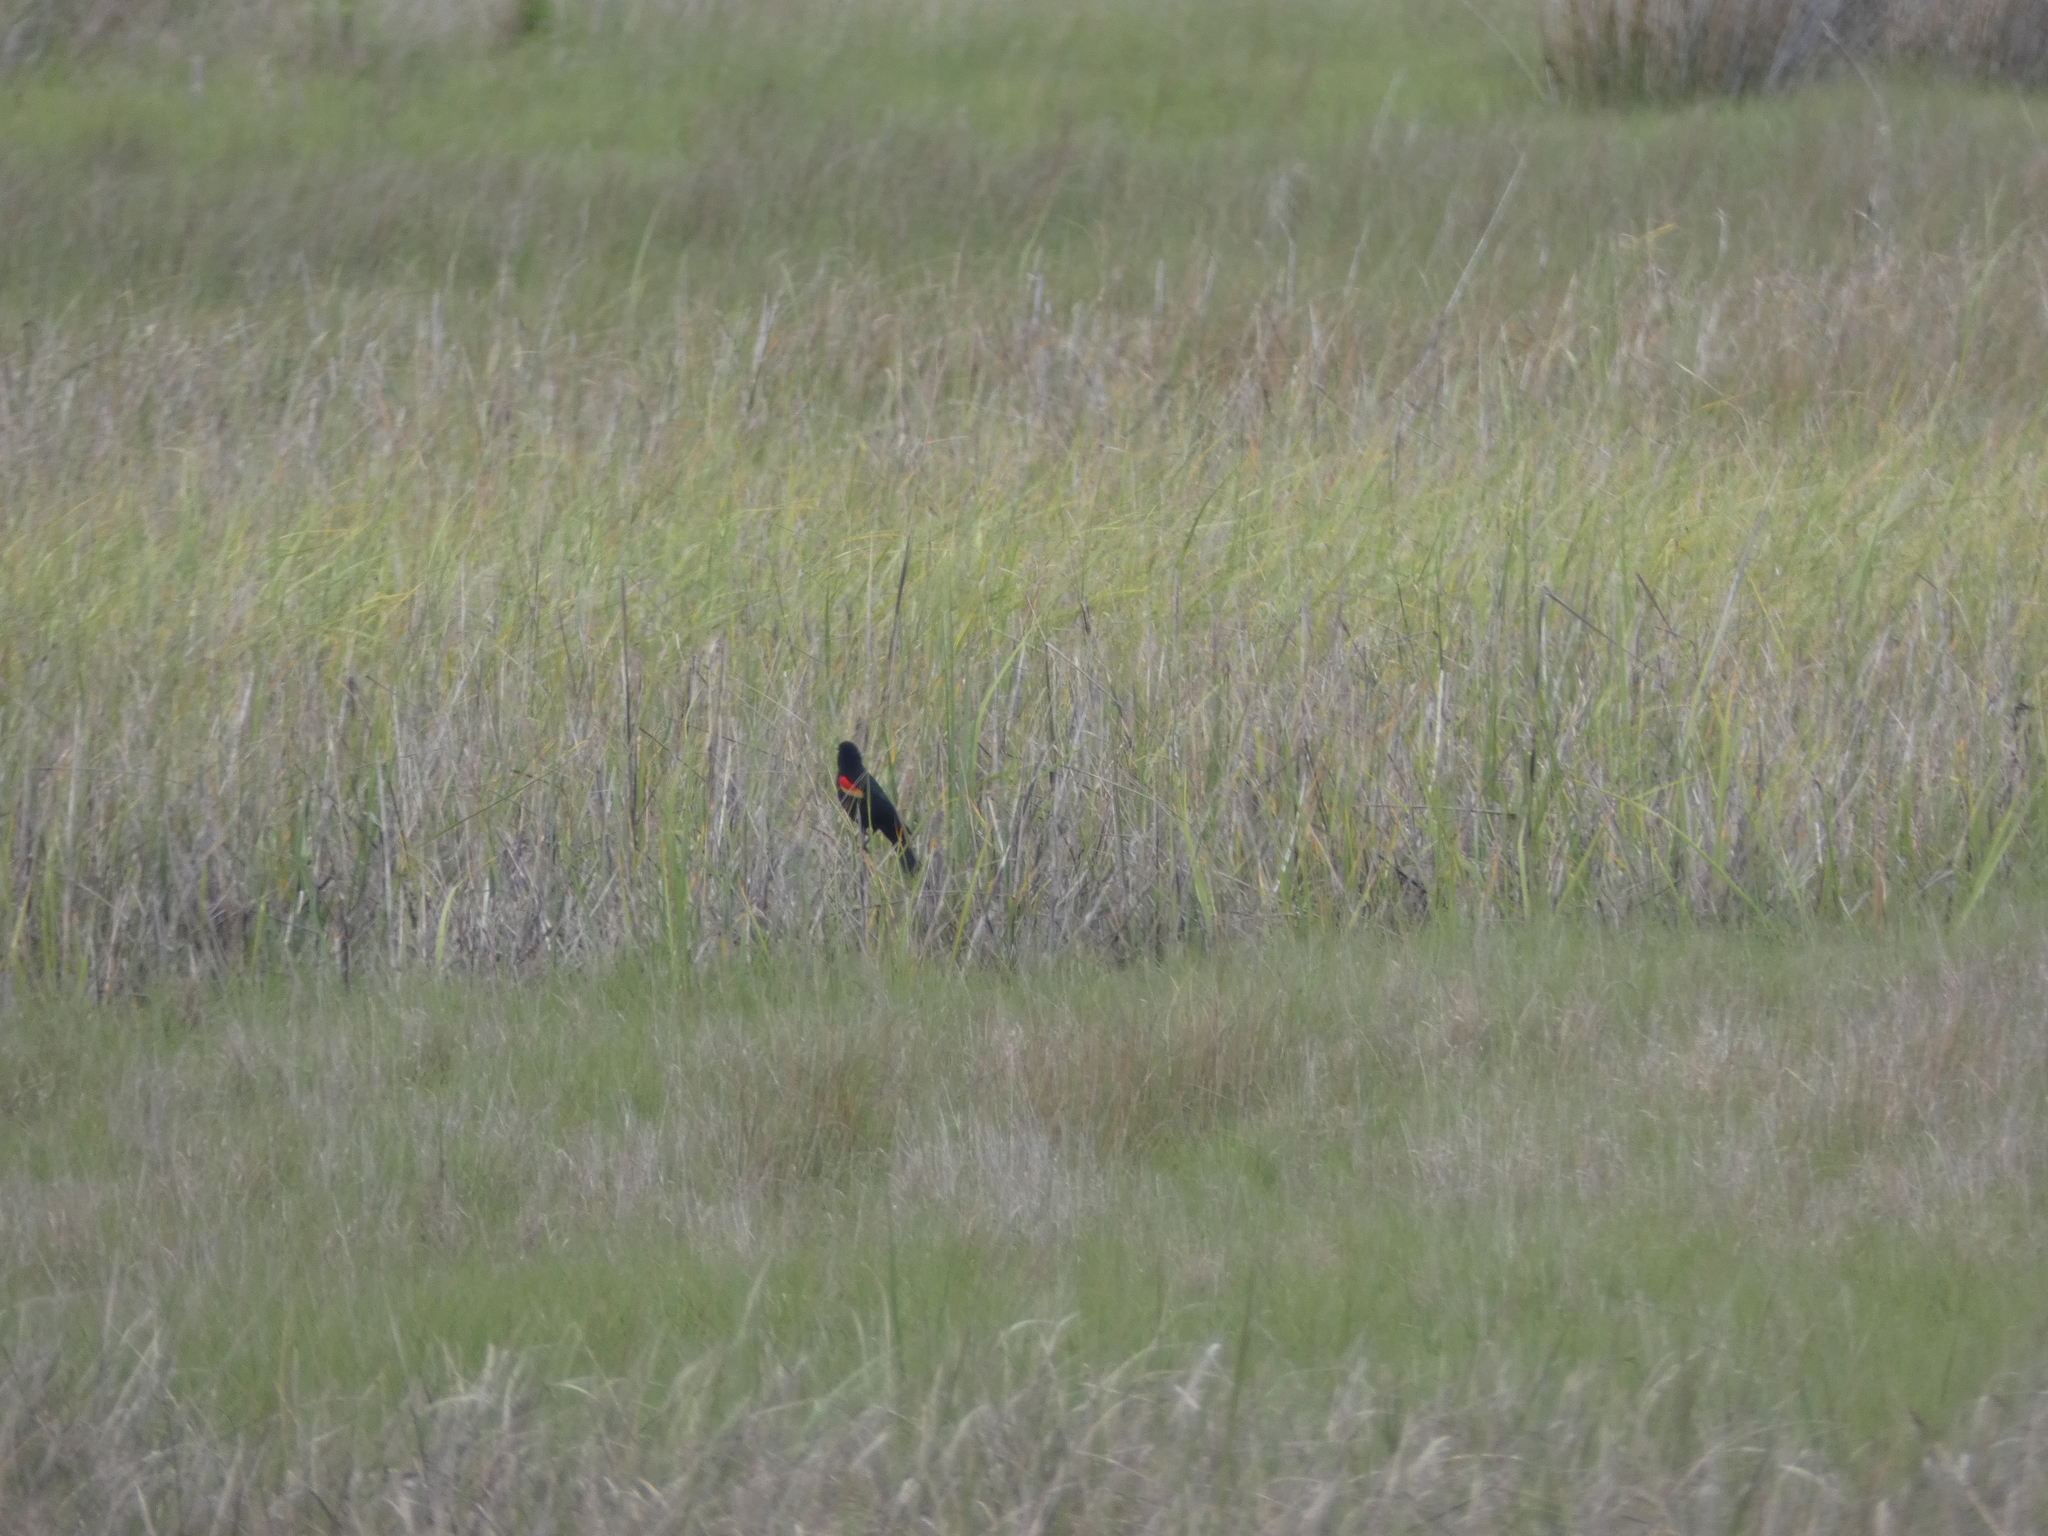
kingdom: Animalia
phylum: Chordata
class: Aves
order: Passeriformes
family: Icteridae
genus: Agelaius
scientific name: Agelaius phoeniceus
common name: Red-winged blackbird
